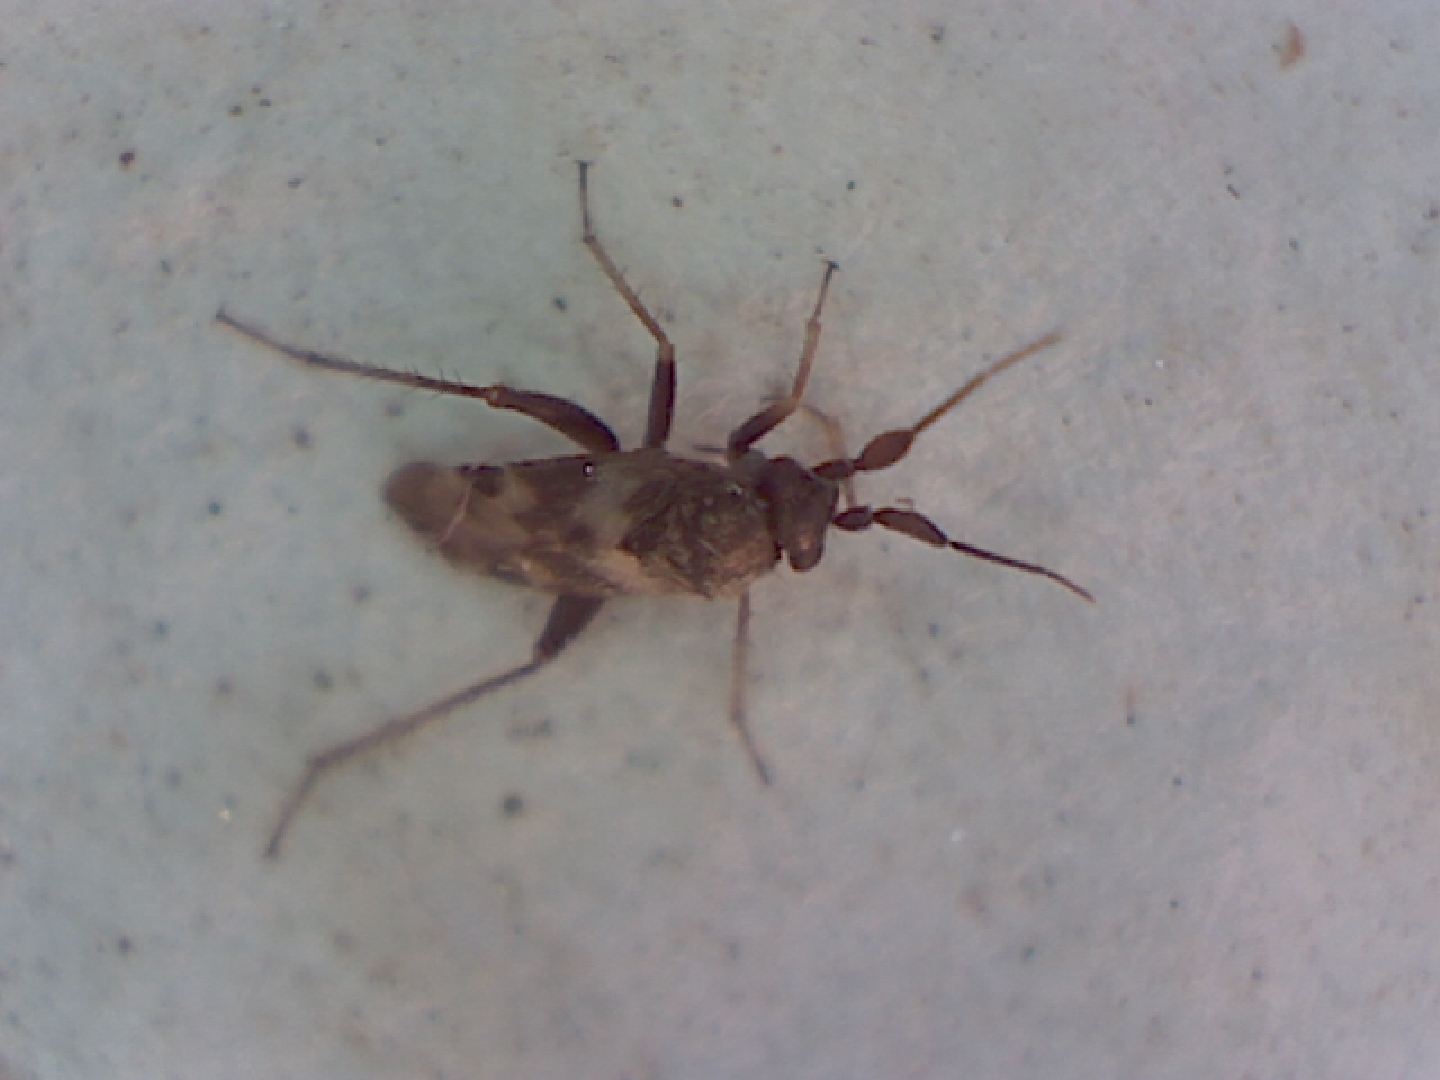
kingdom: Animalia
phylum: Arthropoda
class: Insecta
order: Hemiptera
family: Miridae
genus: Spanagonicus
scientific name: Spanagonicus albofasciatus
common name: Whitemarked fleahopper
